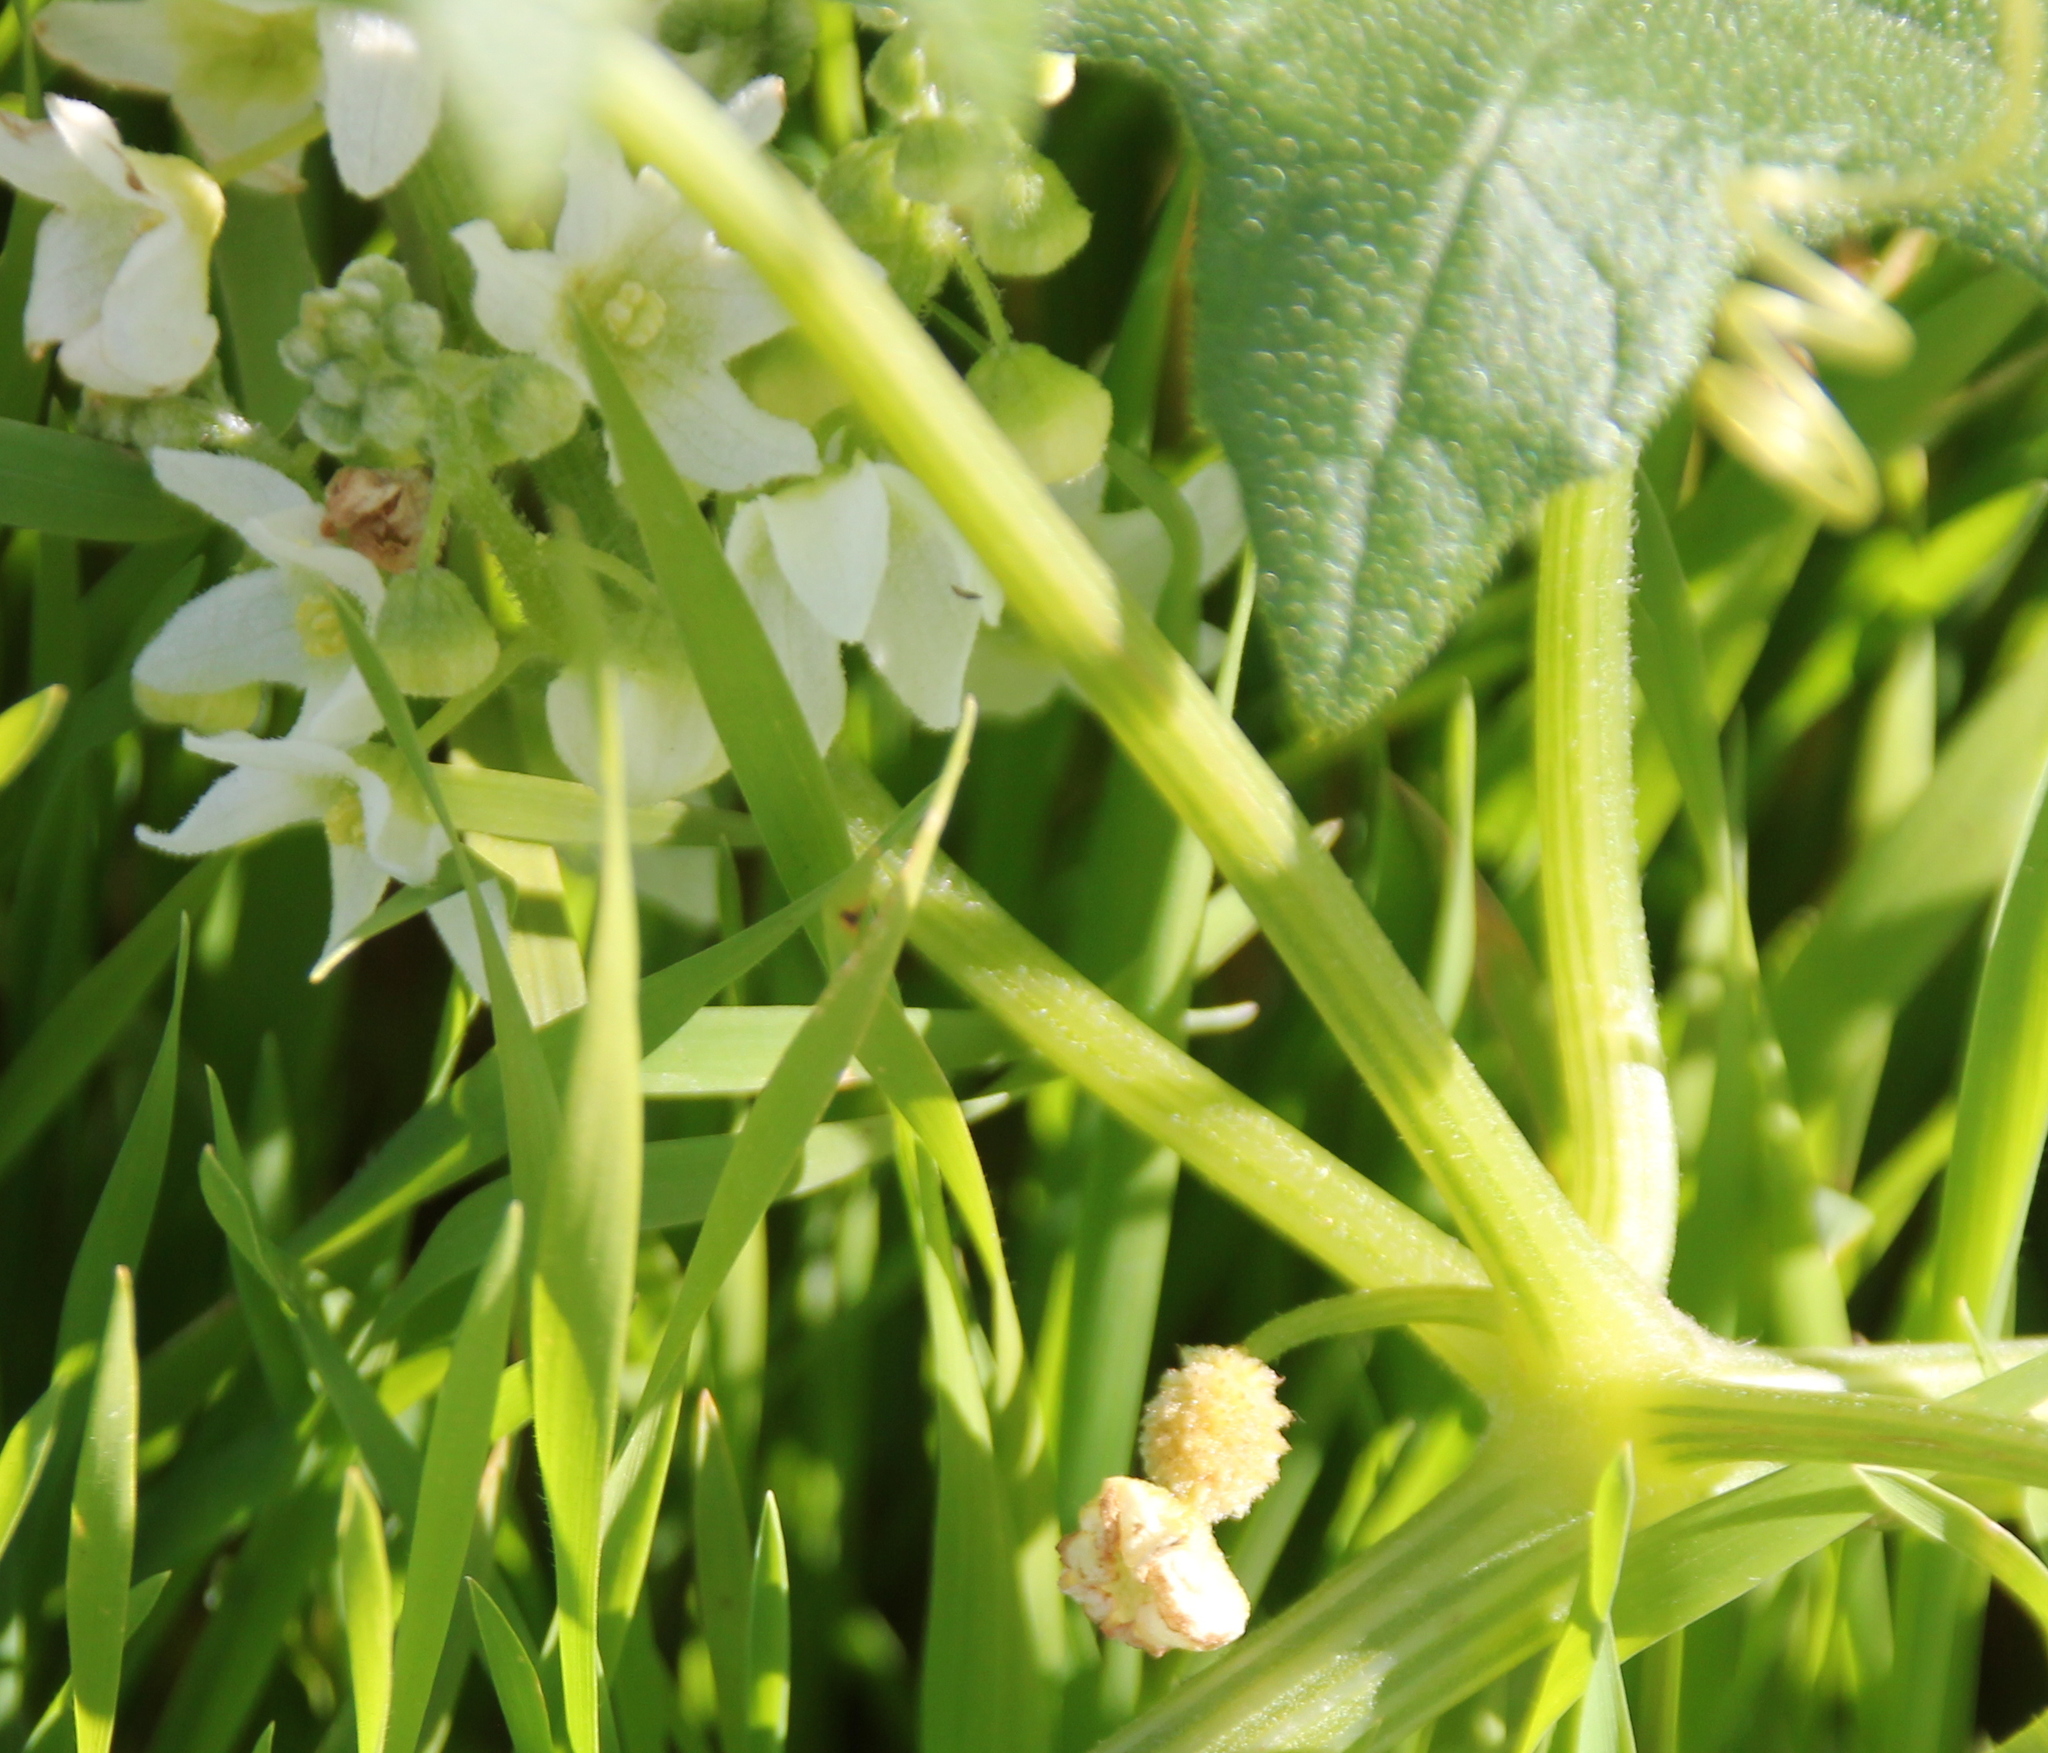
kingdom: Plantae
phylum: Tracheophyta
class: Magnoliopsida
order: Cucurbitales
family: Cucurbitaceae
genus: Marah
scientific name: Marah macrocarpa
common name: Cucamonga manroot
